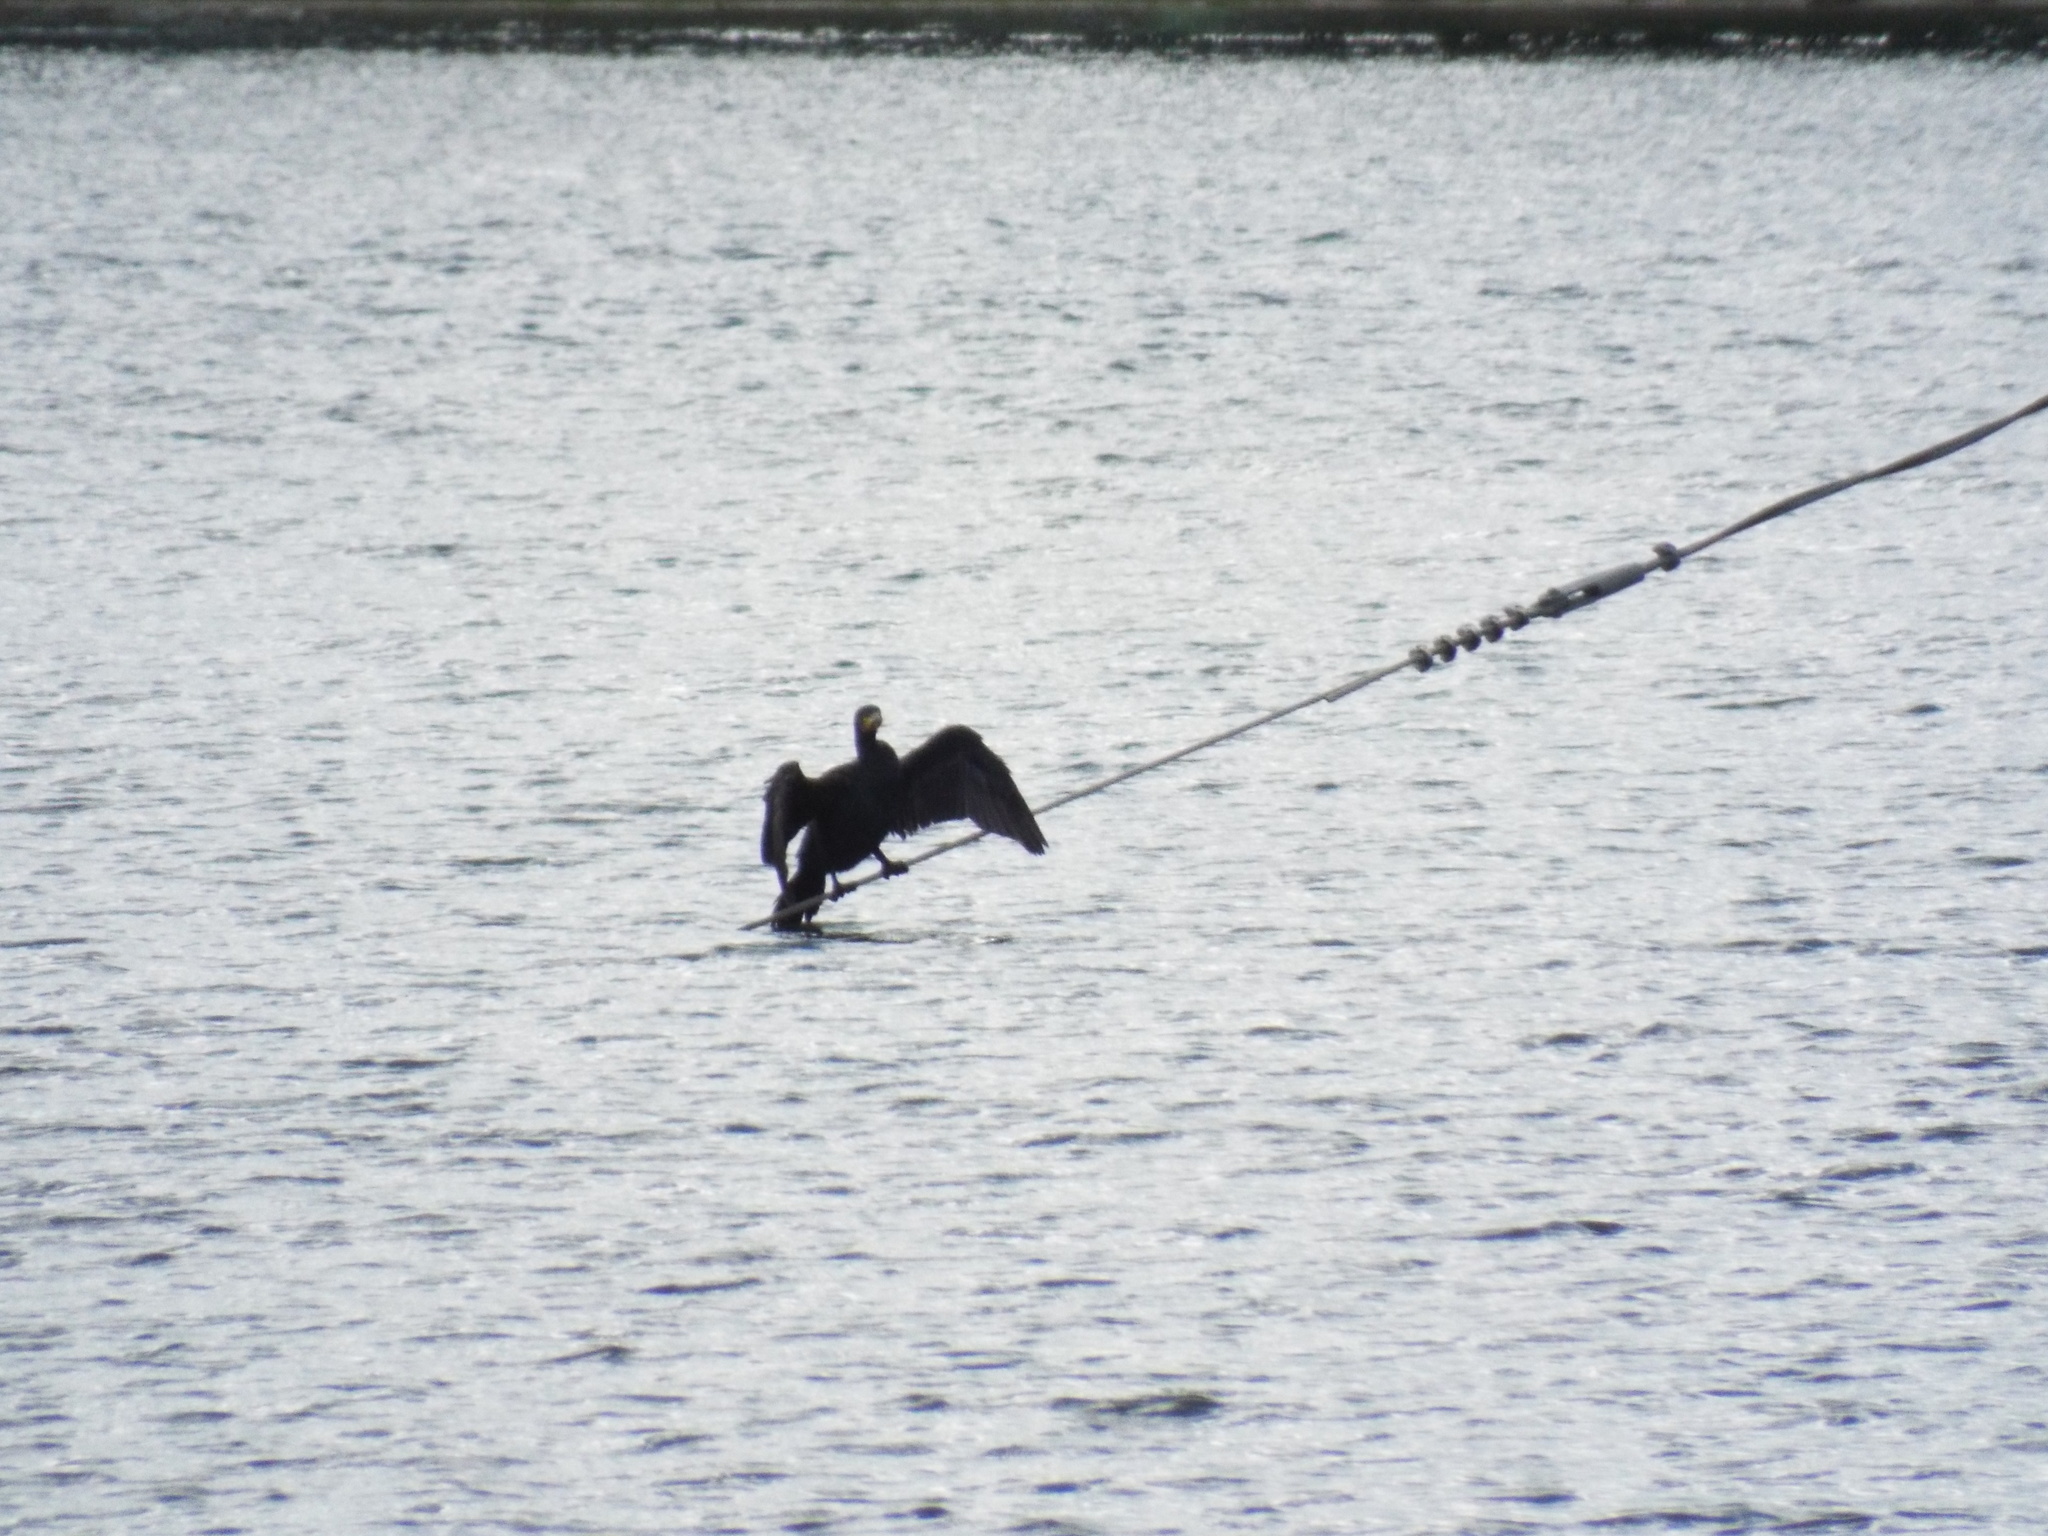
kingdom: Animalia
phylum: Chordata
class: Aves
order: Suliformes
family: Phalacrocoracidae
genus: Phalacrocorax
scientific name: Phalacrocorax carbo
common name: Great cormorant
